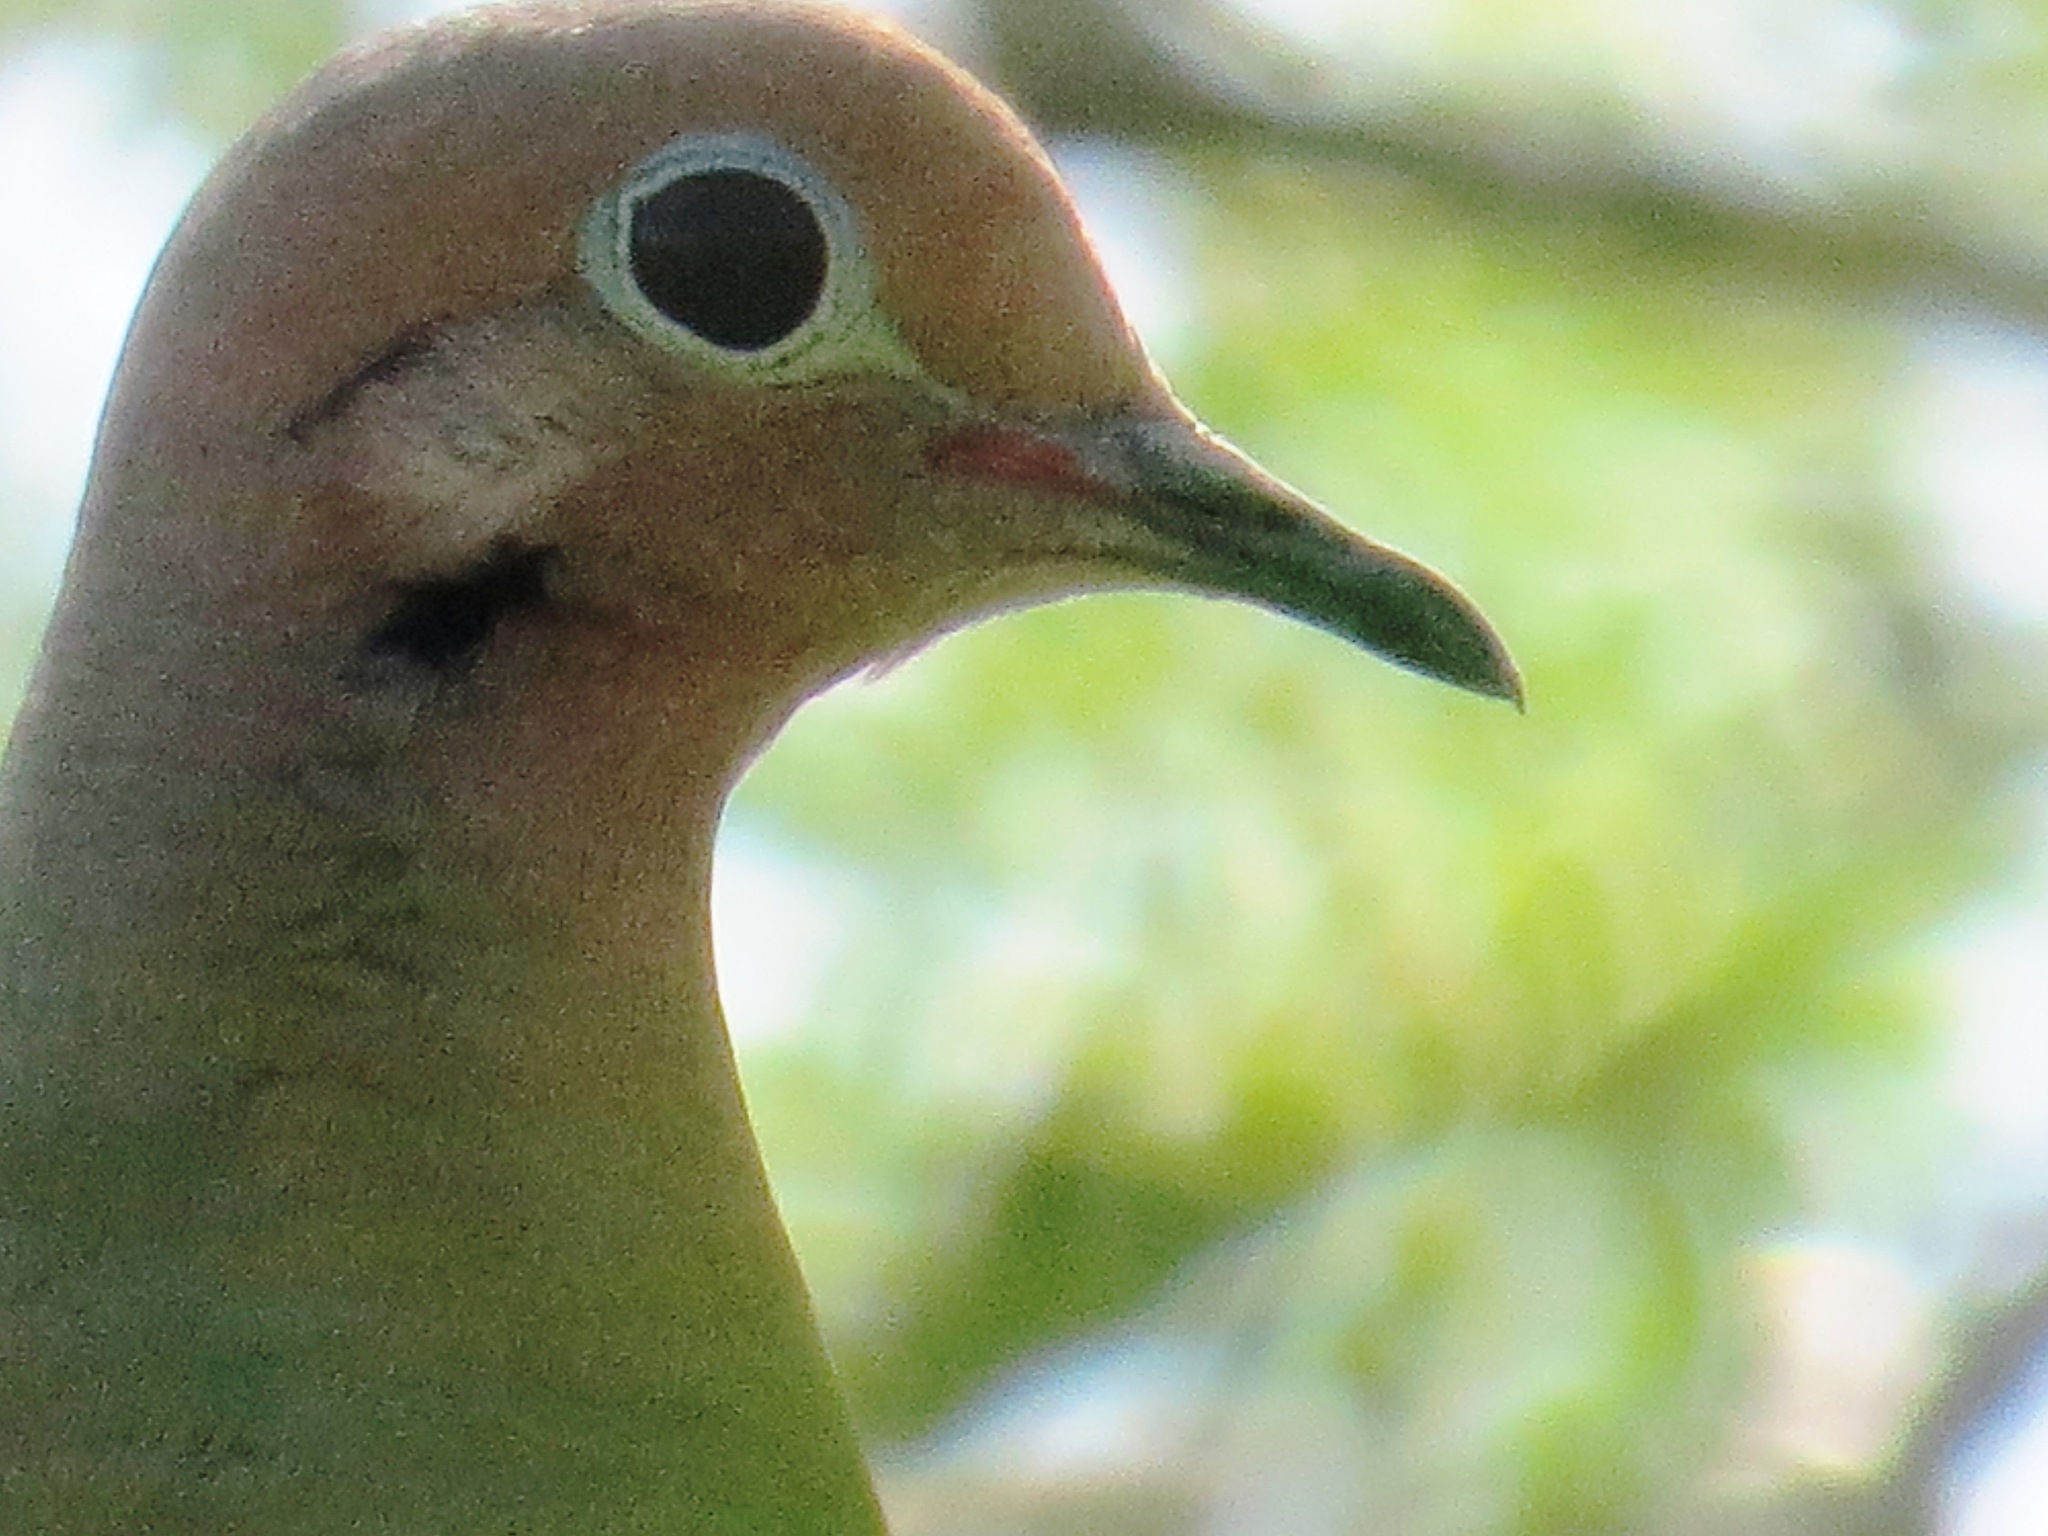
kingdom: Animalia
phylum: Chordata
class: Aves
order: Columbiformes
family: Columbidae
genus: Zenaida
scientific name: Zenaida asiatica
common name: White-winged dove
